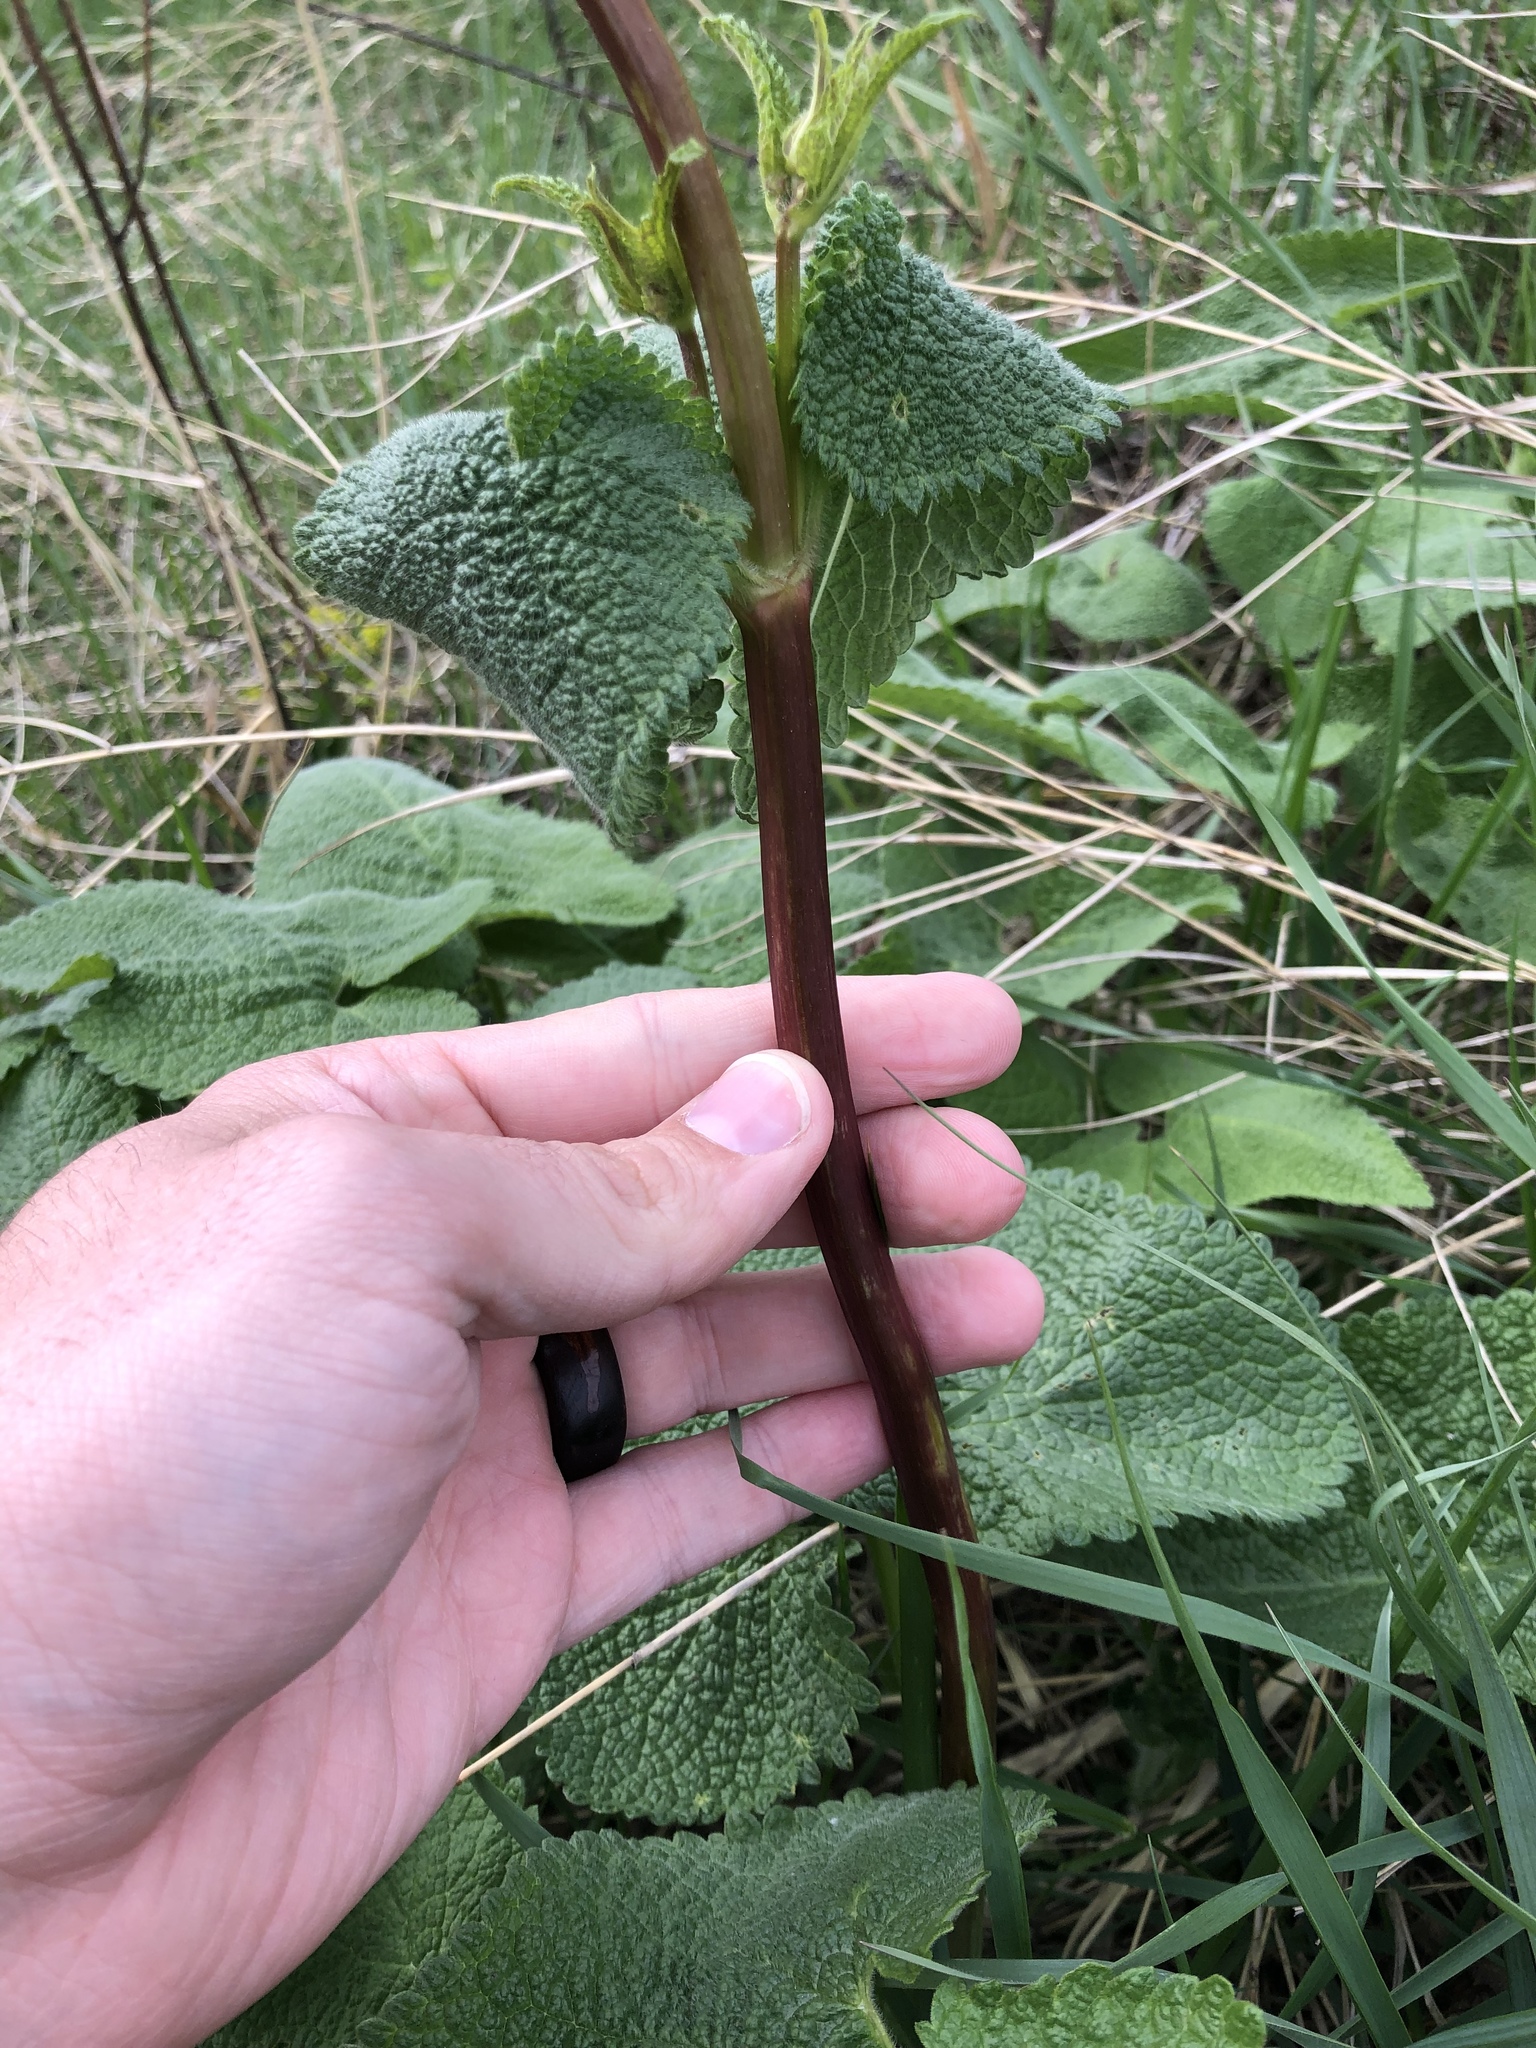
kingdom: Plantae
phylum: Tracheophyta
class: Magnoliopsida
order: Lamiales
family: Lamiaceae
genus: Phlomoides
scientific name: Phlomoides tuberosa
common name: Tuberous jerusalem sage
